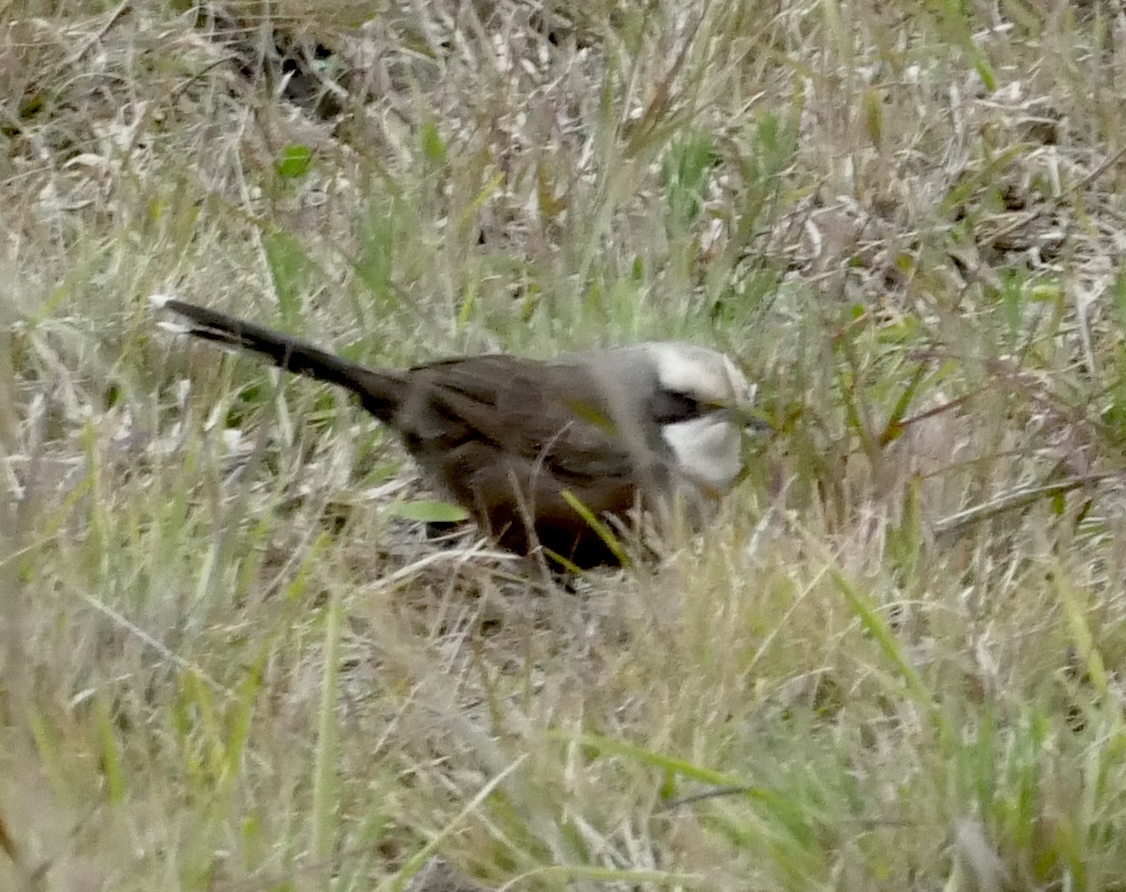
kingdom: Animalia
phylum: Chordata
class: Aves
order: Passeriformes
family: Pomatostomidae
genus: Pomatostomus
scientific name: Pomatostomus temporalis
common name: Grey-crowned babbler
